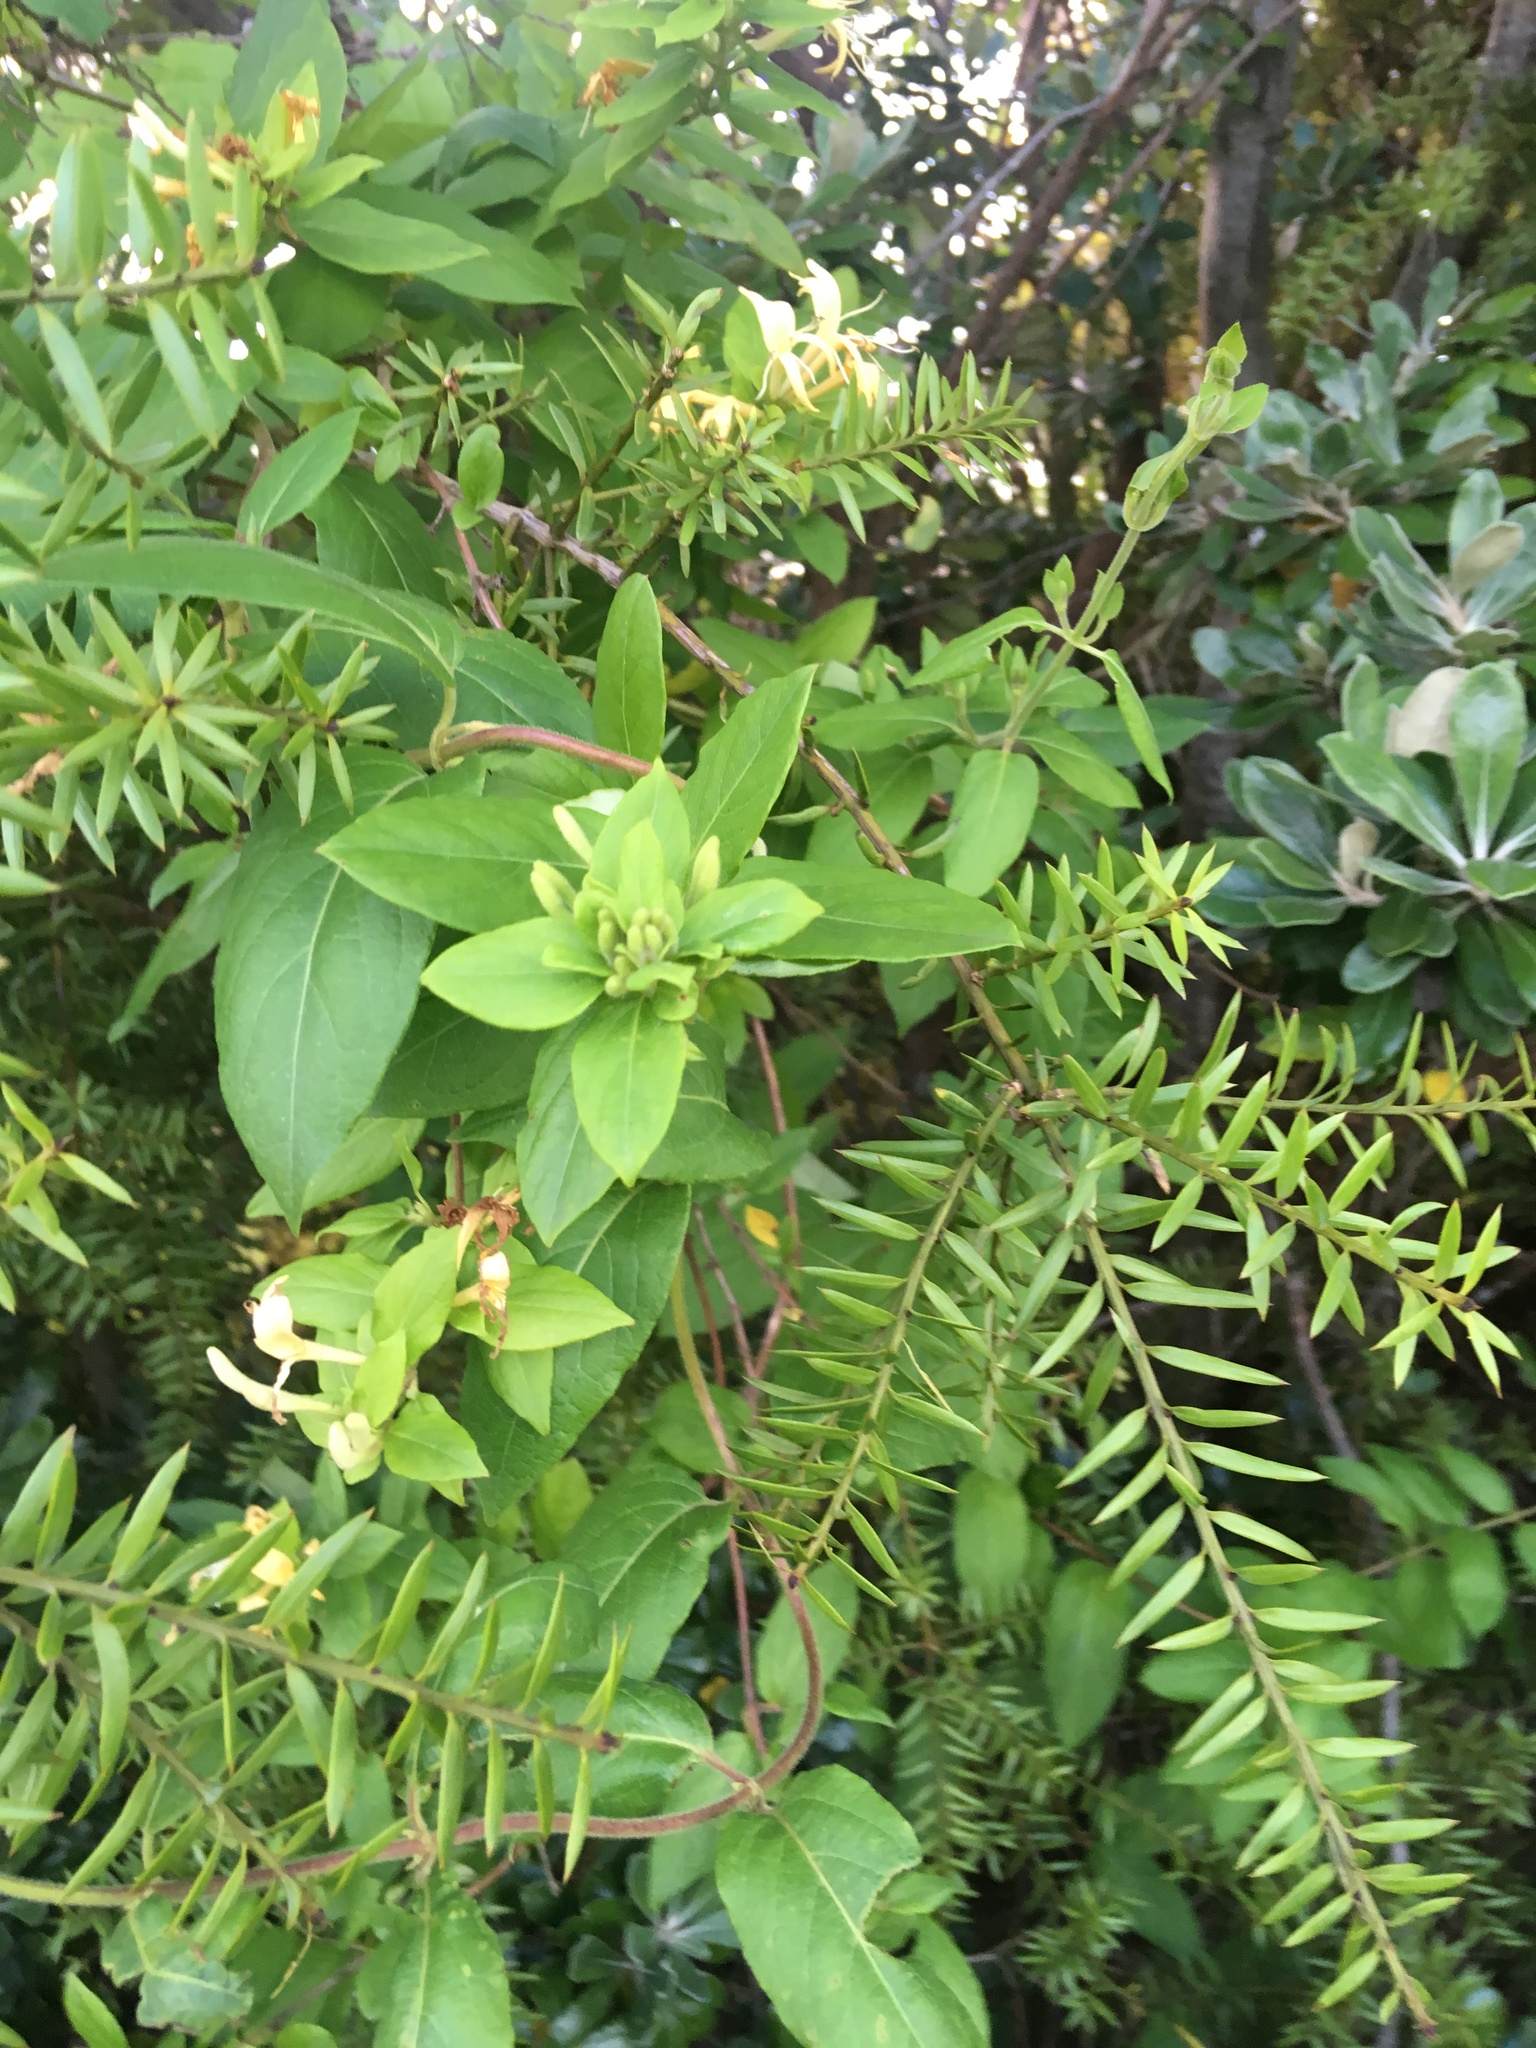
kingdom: Plantae
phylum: Tracheophyta
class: Pinopsida
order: Pinales
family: Podocarpaceae
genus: Podocarpus
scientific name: Podocarpus totara
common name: Totara
